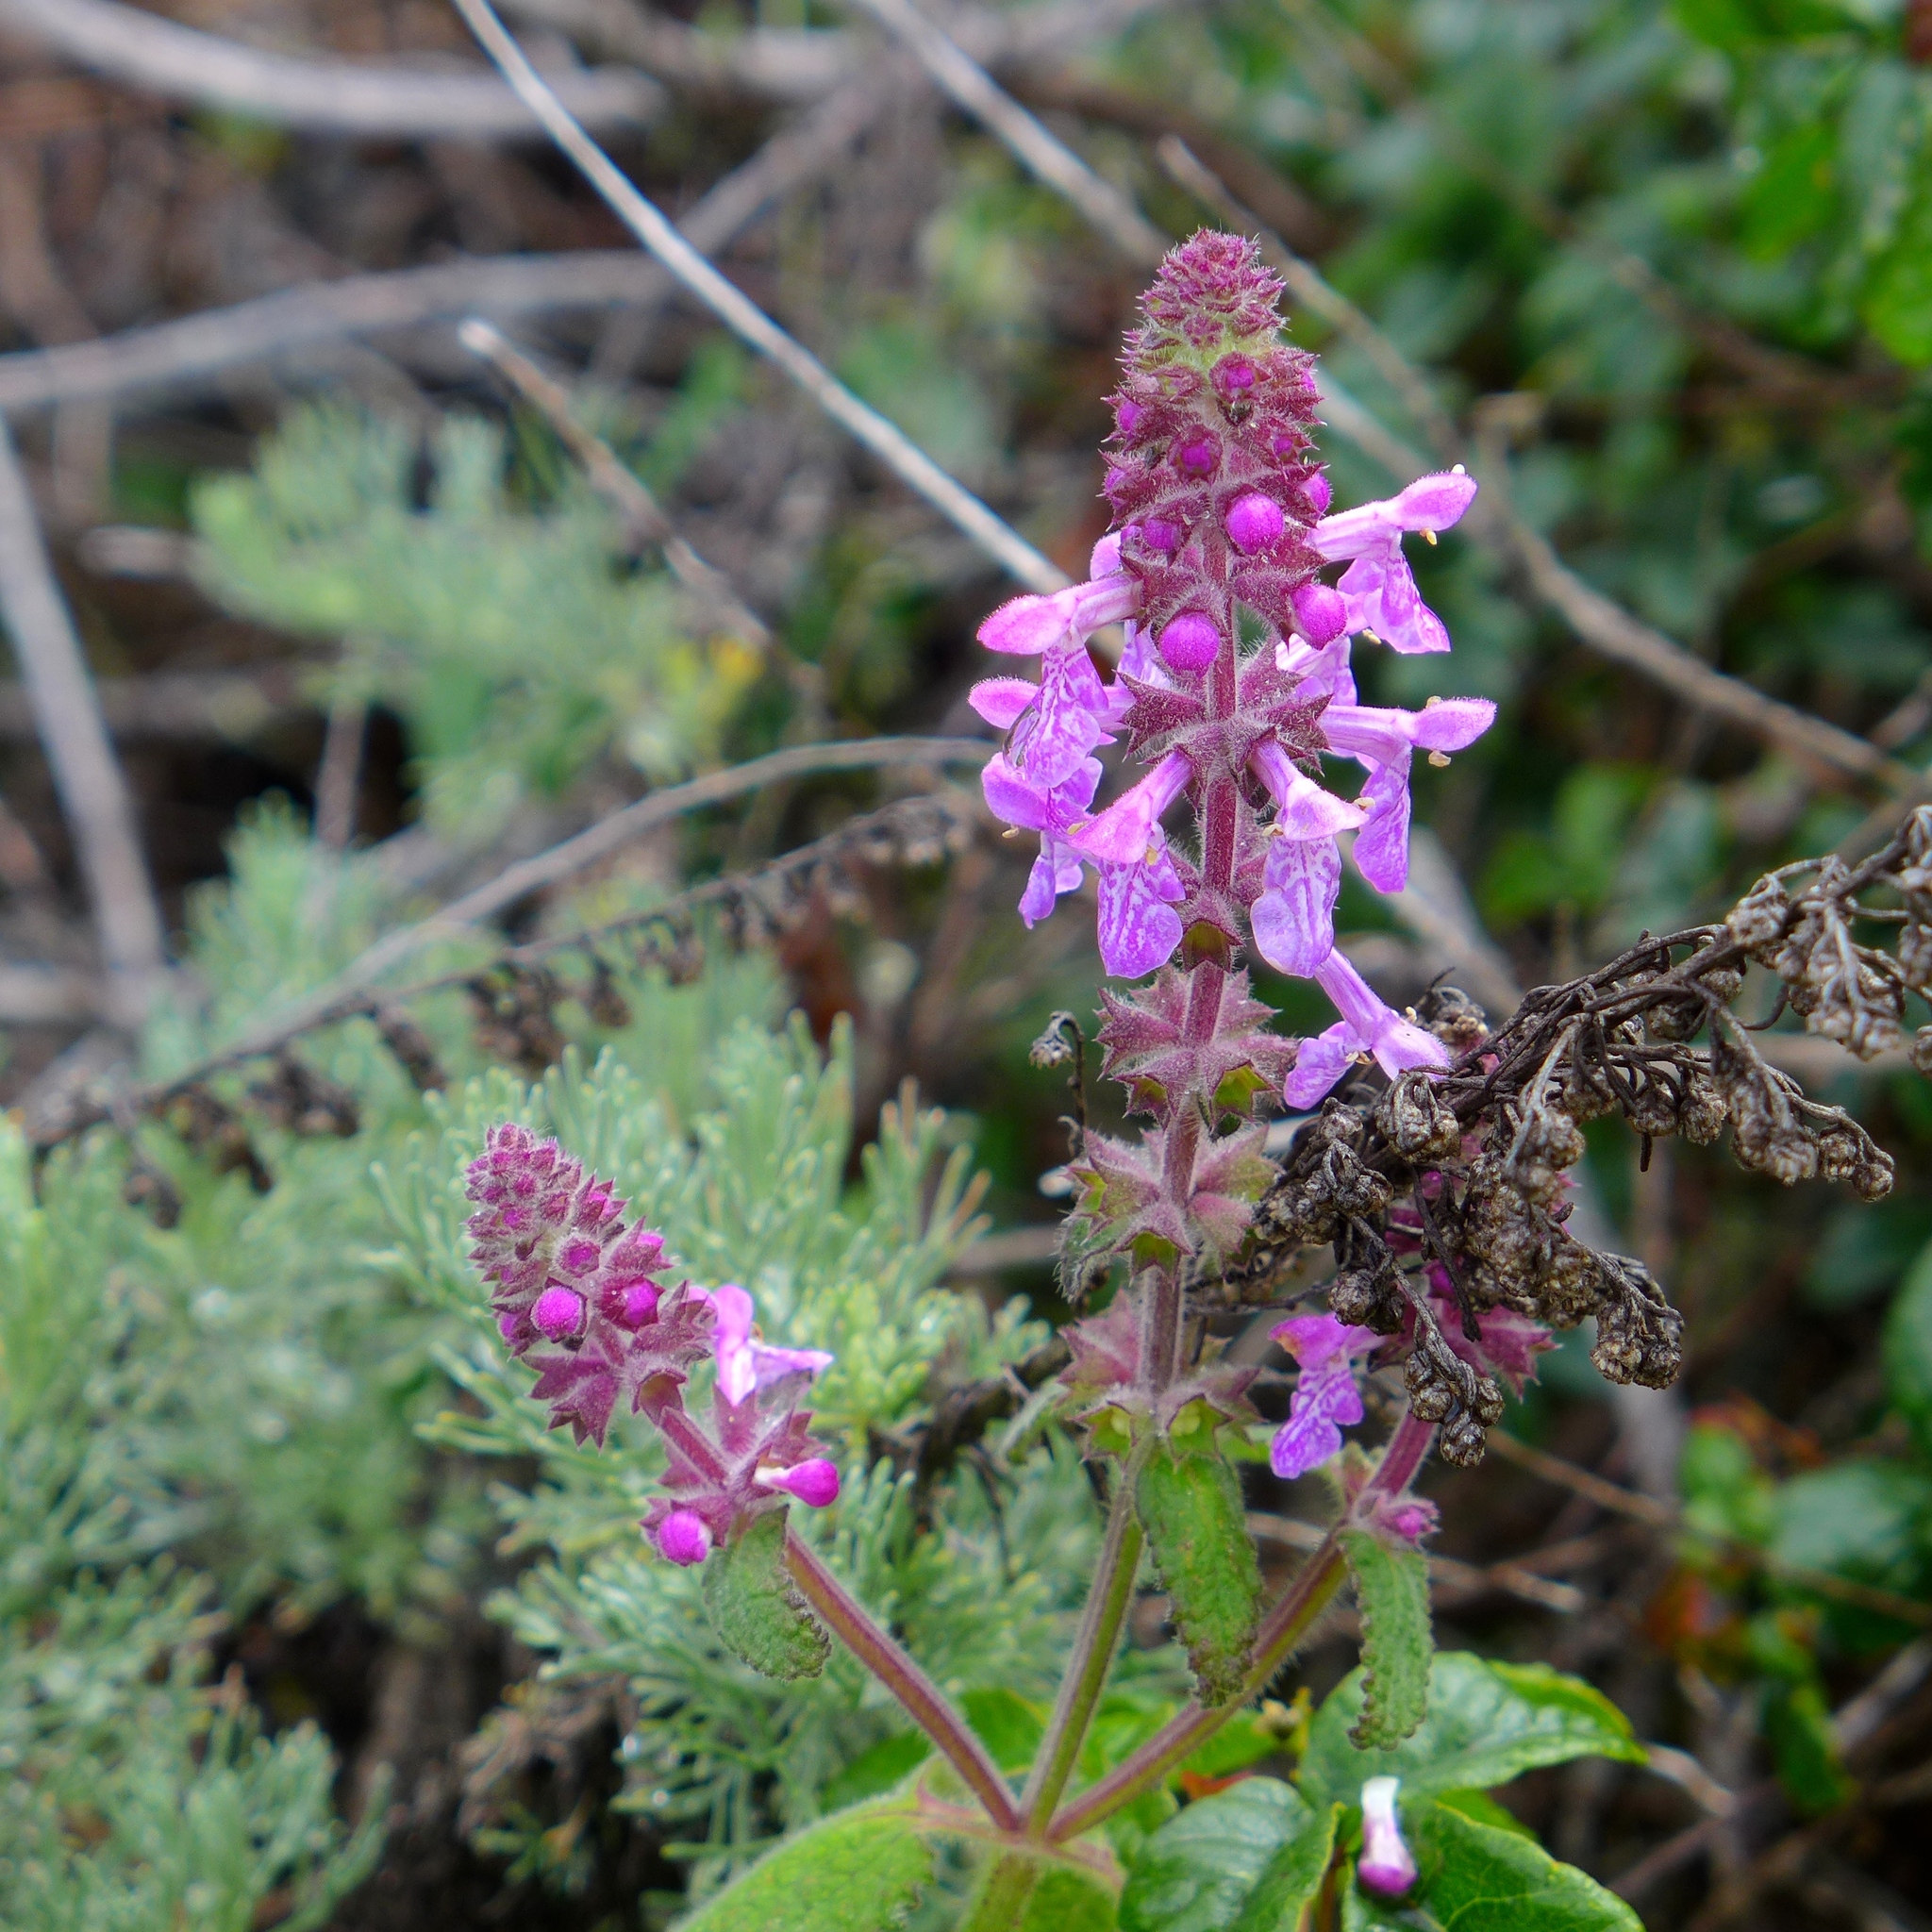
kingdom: Plantae
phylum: Tracheophyta
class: Magnoliopsida
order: Lamiales
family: Lamiaceae
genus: Stachys
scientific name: Stachys bullata
